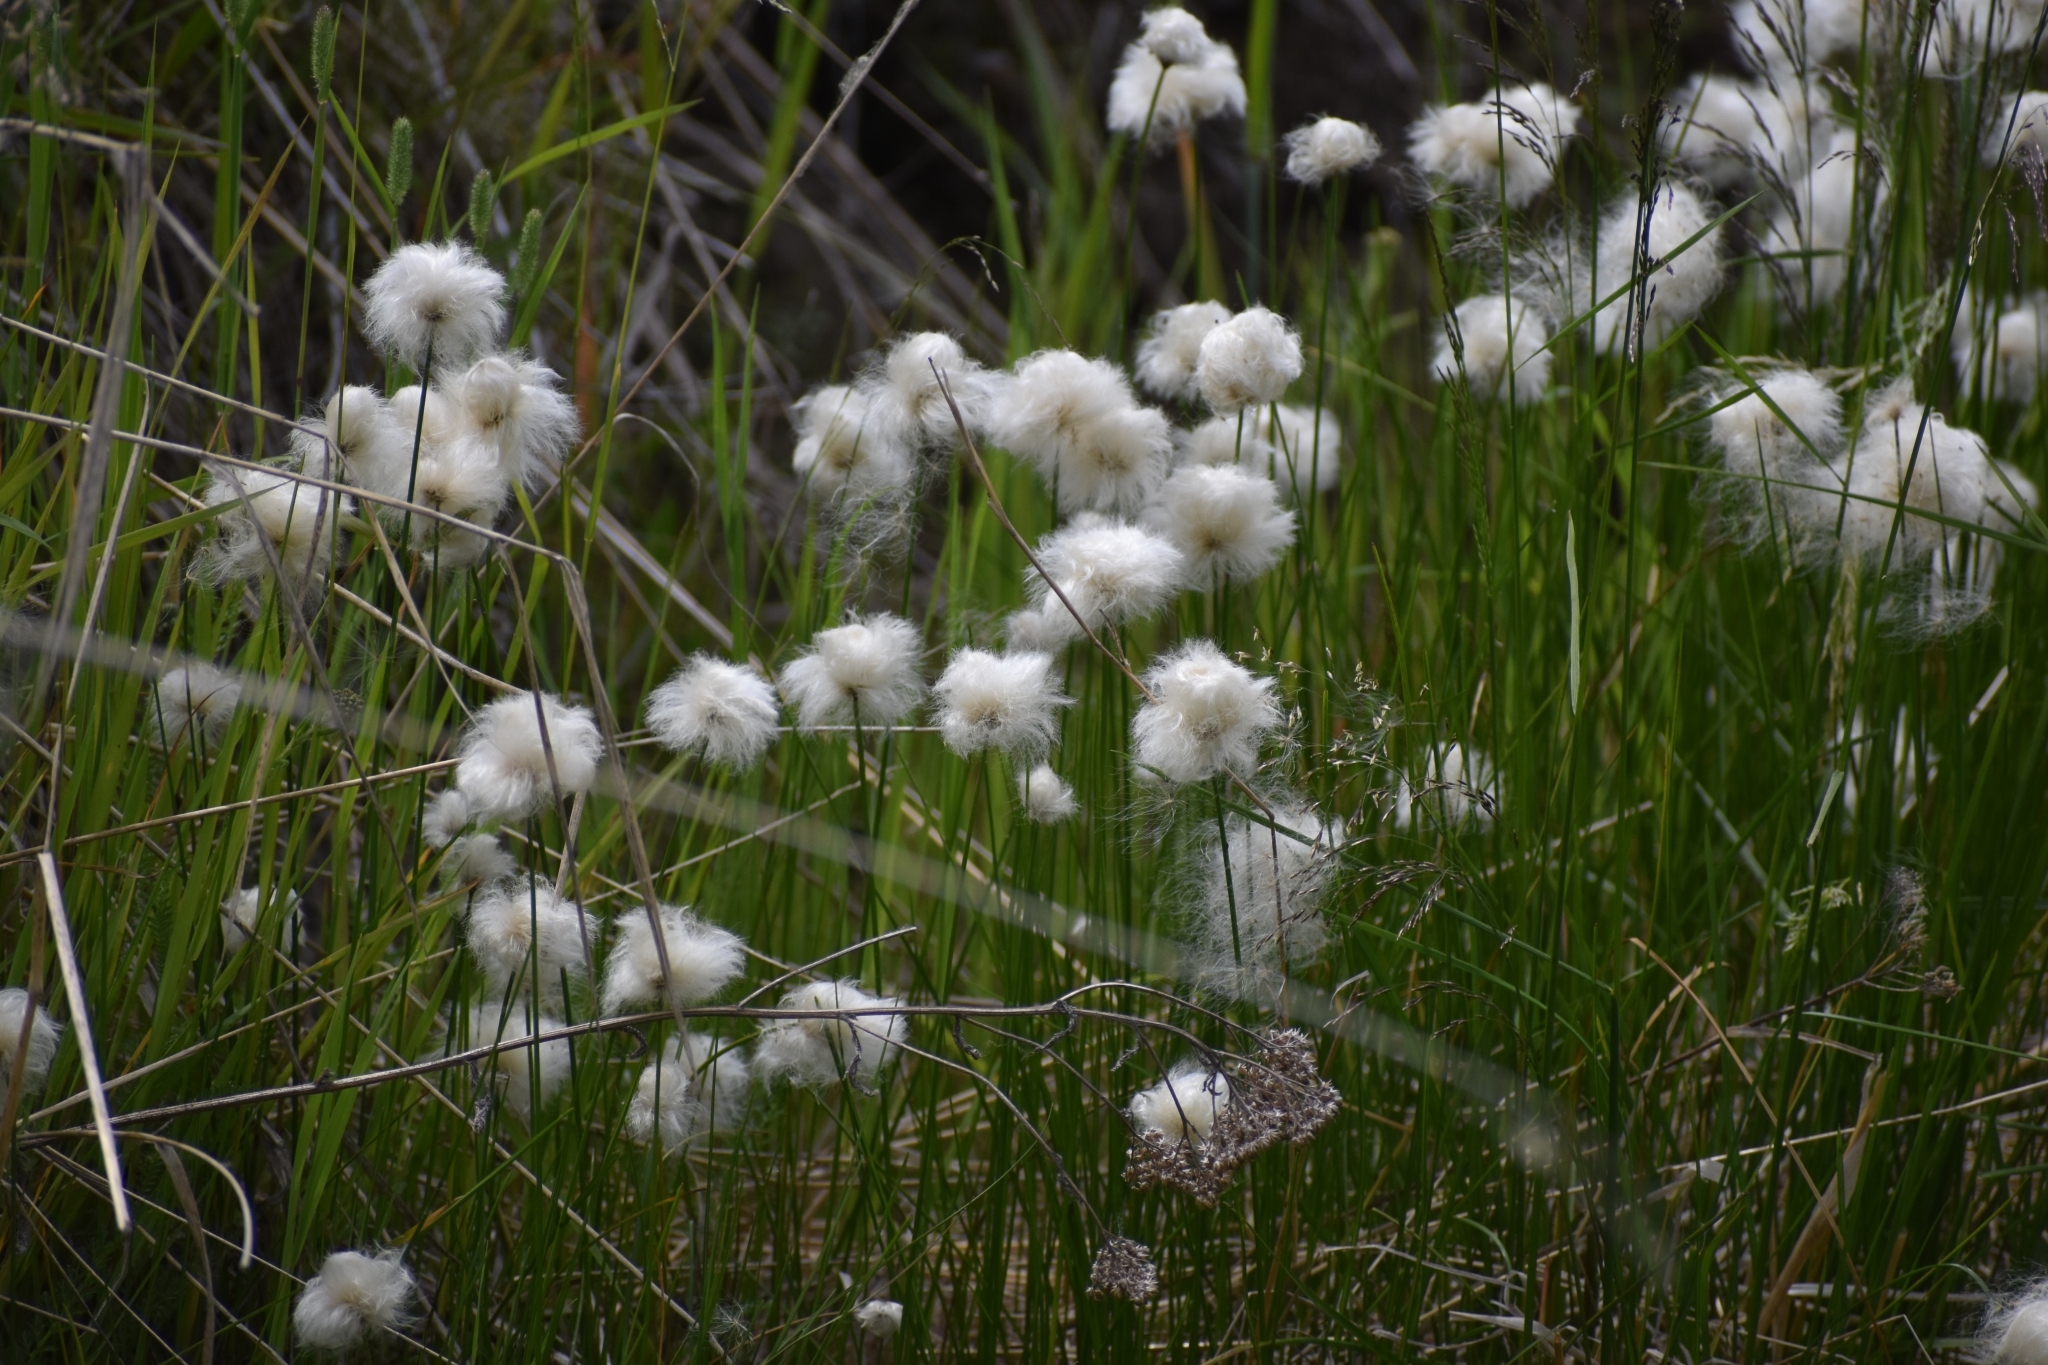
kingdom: Plantae
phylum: Tracheophyta
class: Liliopsida
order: Poales
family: Cyperaceae
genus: Eriophorum
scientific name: Eriophorum vaginatum
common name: Hare's-tail cottongrass
